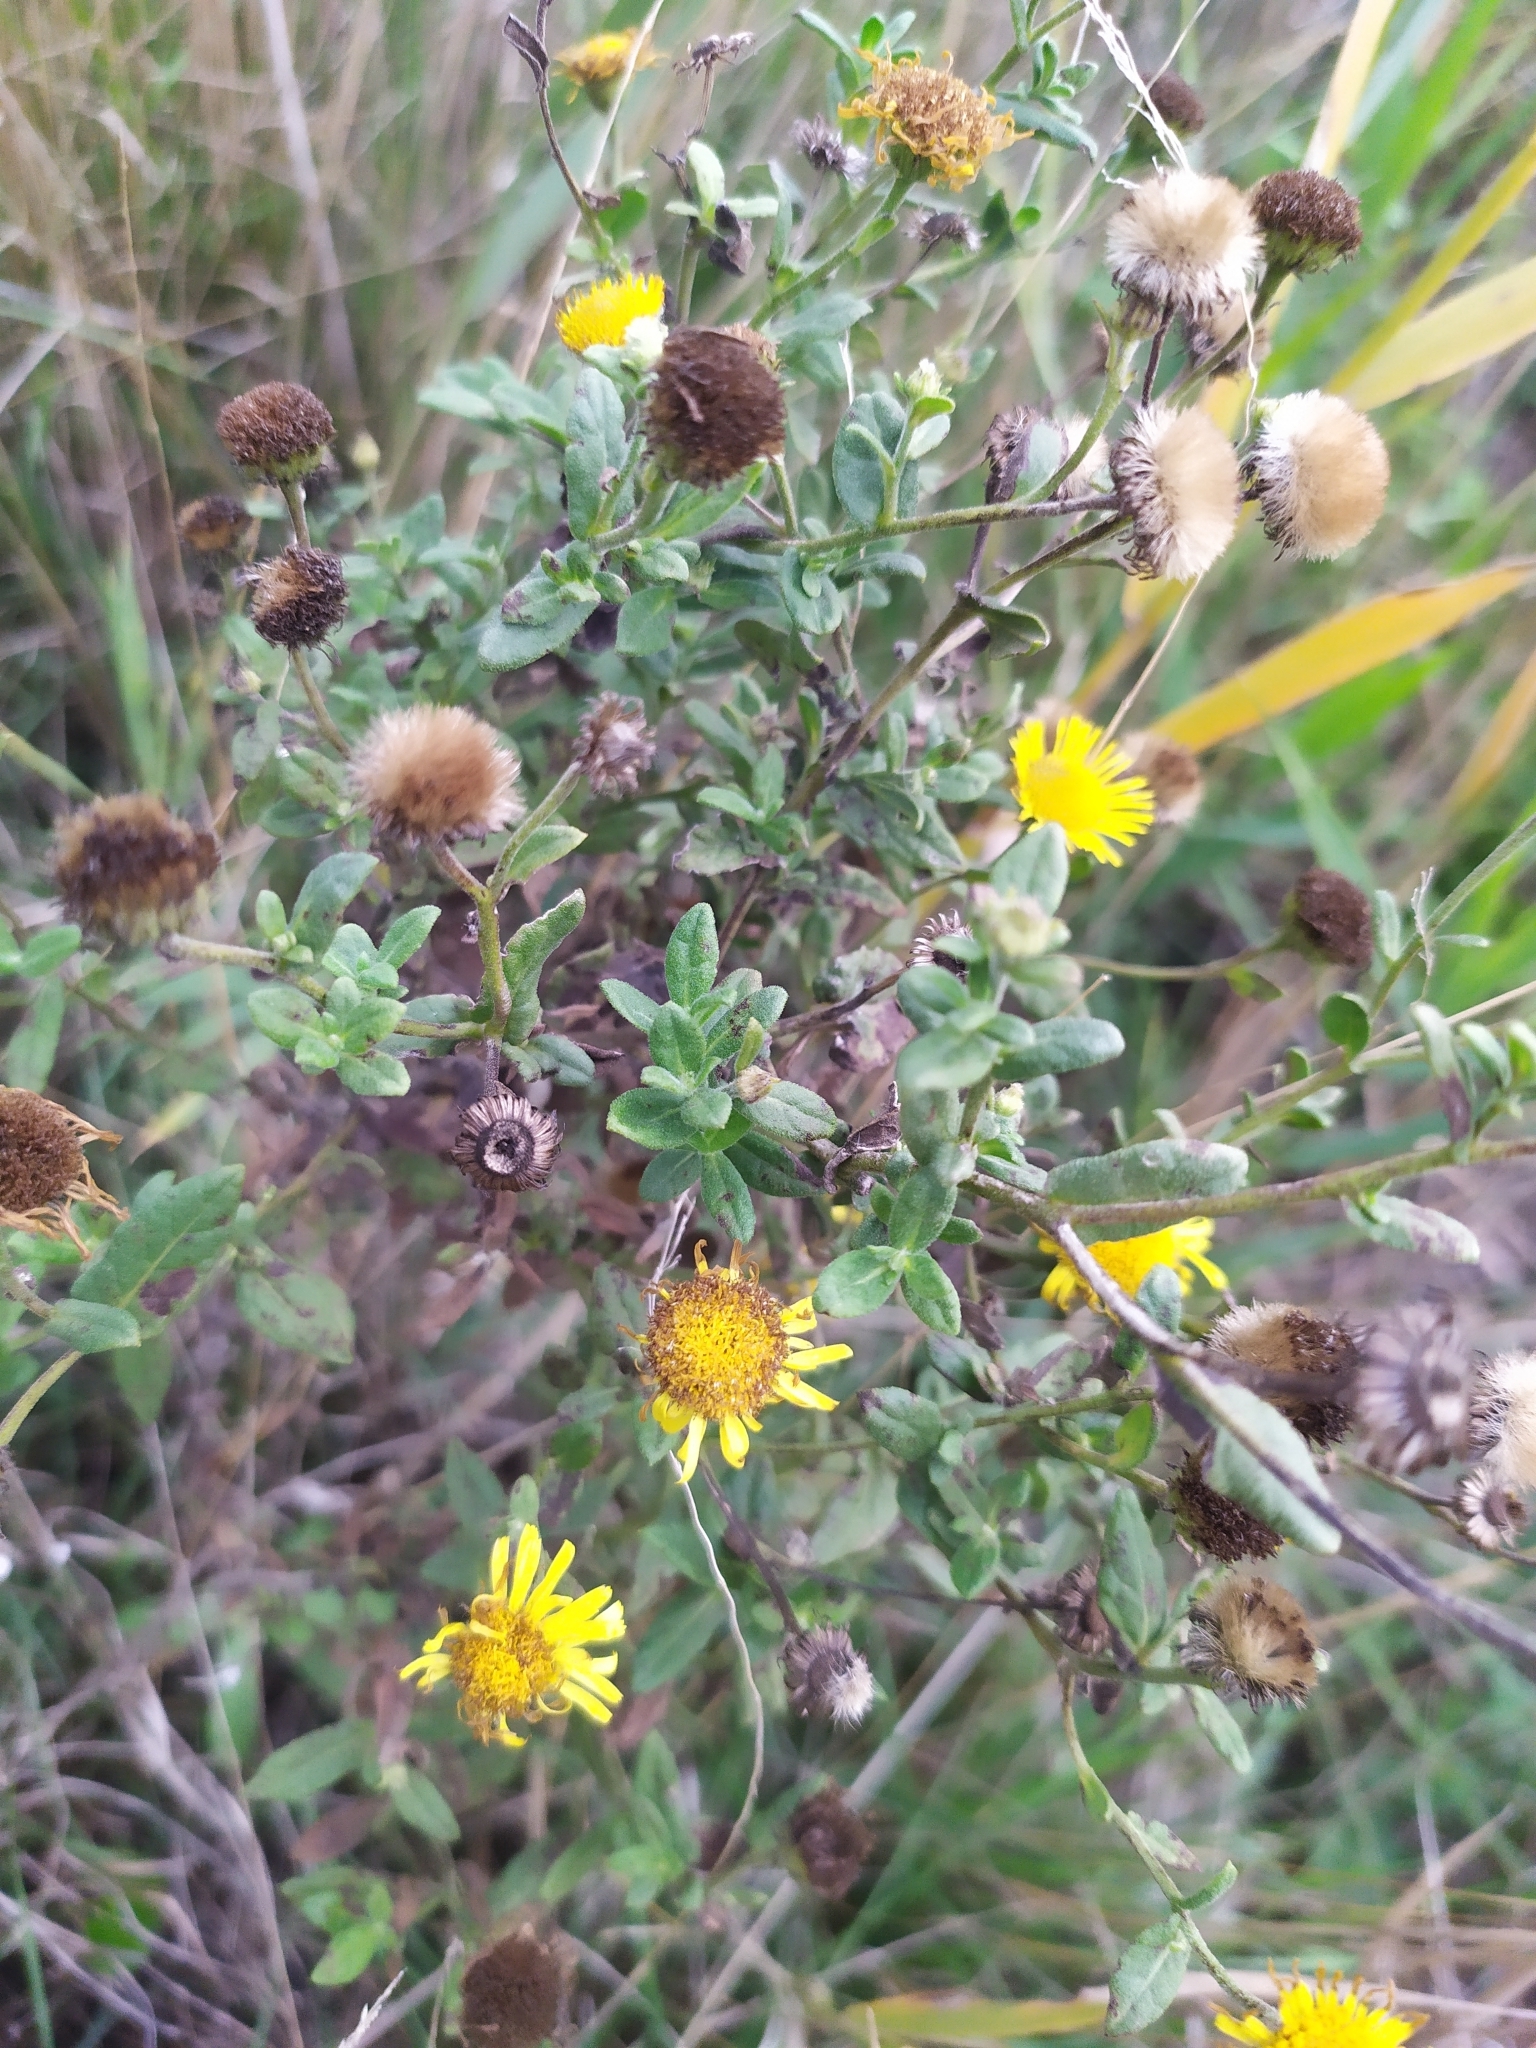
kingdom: Plantae
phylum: Tracheophyta
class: Magnoliopsida
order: Asterales
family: Asteraceae
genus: Pulicaria
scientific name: Pulicaria dysenterica
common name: Common fleabane
